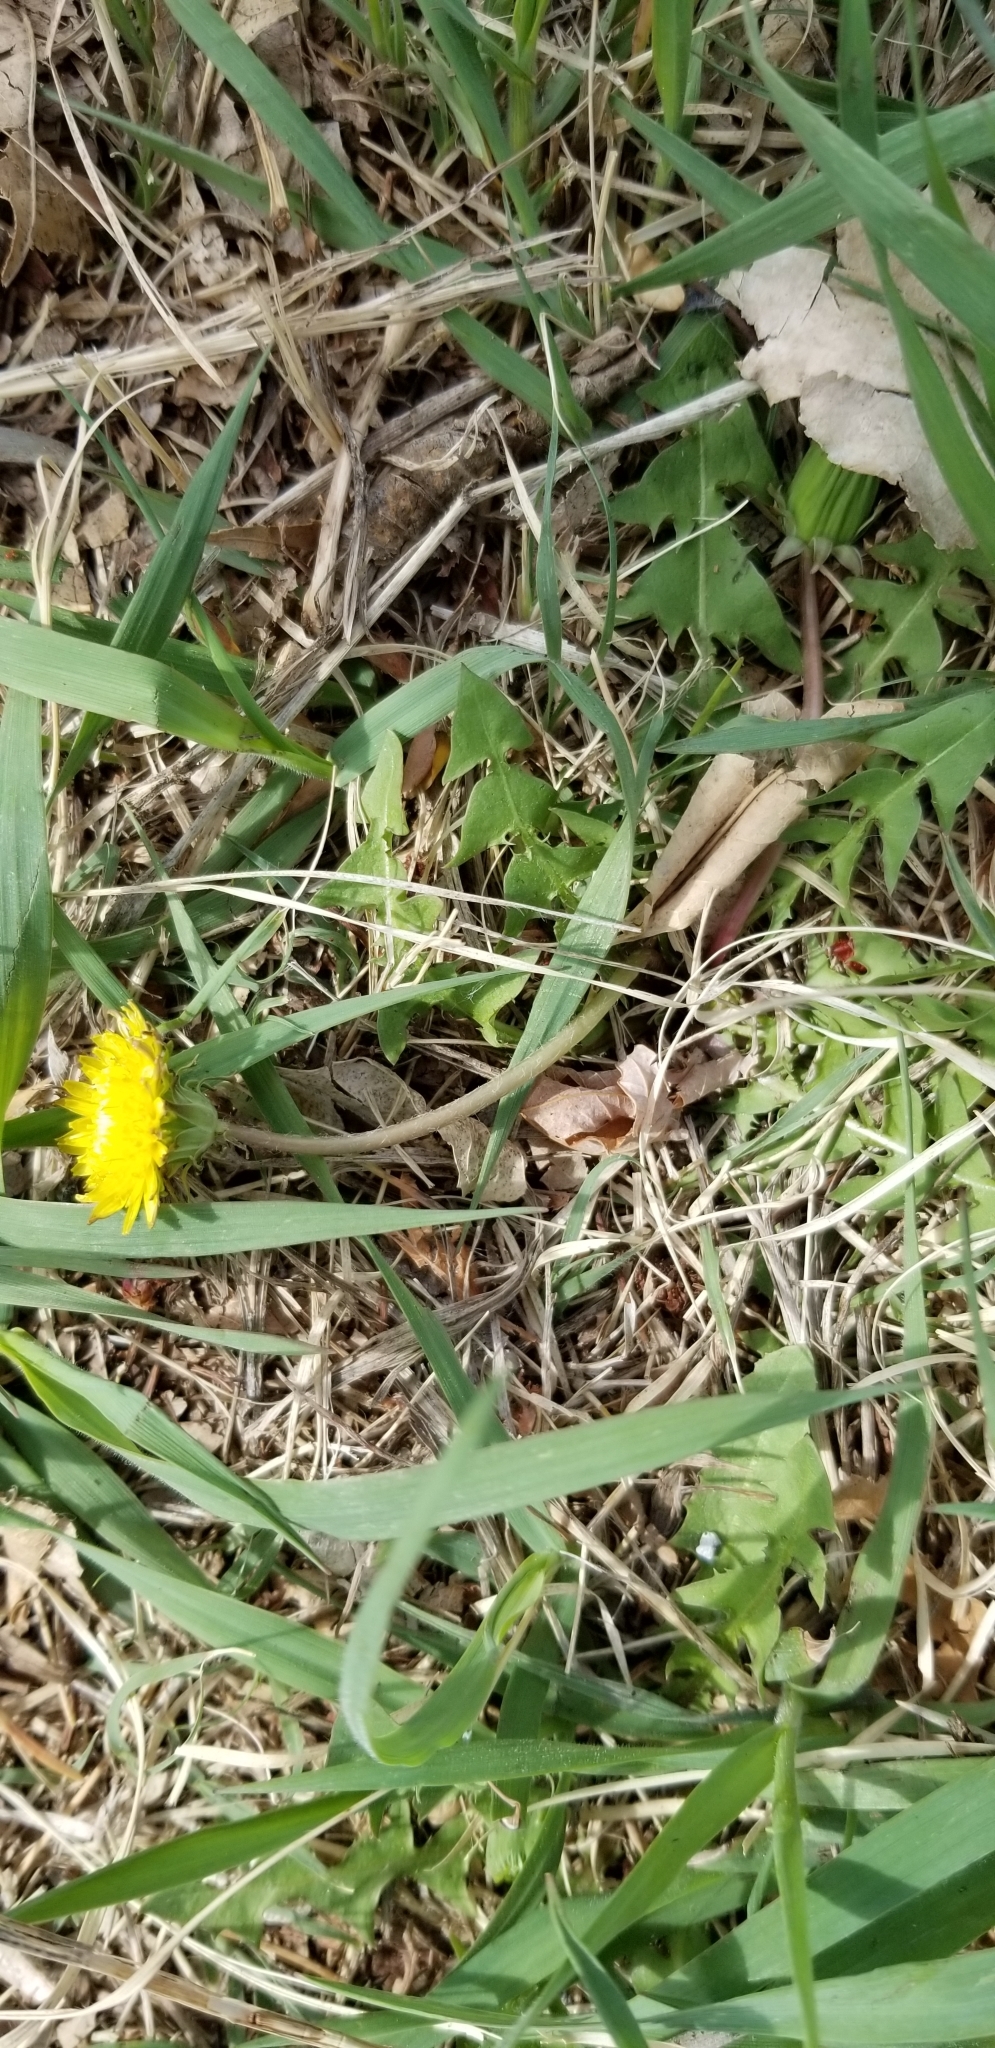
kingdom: Plantae
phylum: Tracheophyta
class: Magnoliopsida
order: Asterales
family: Asteraceae
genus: Taraxacum
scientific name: Taraxacum officinale
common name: Common dandelion
